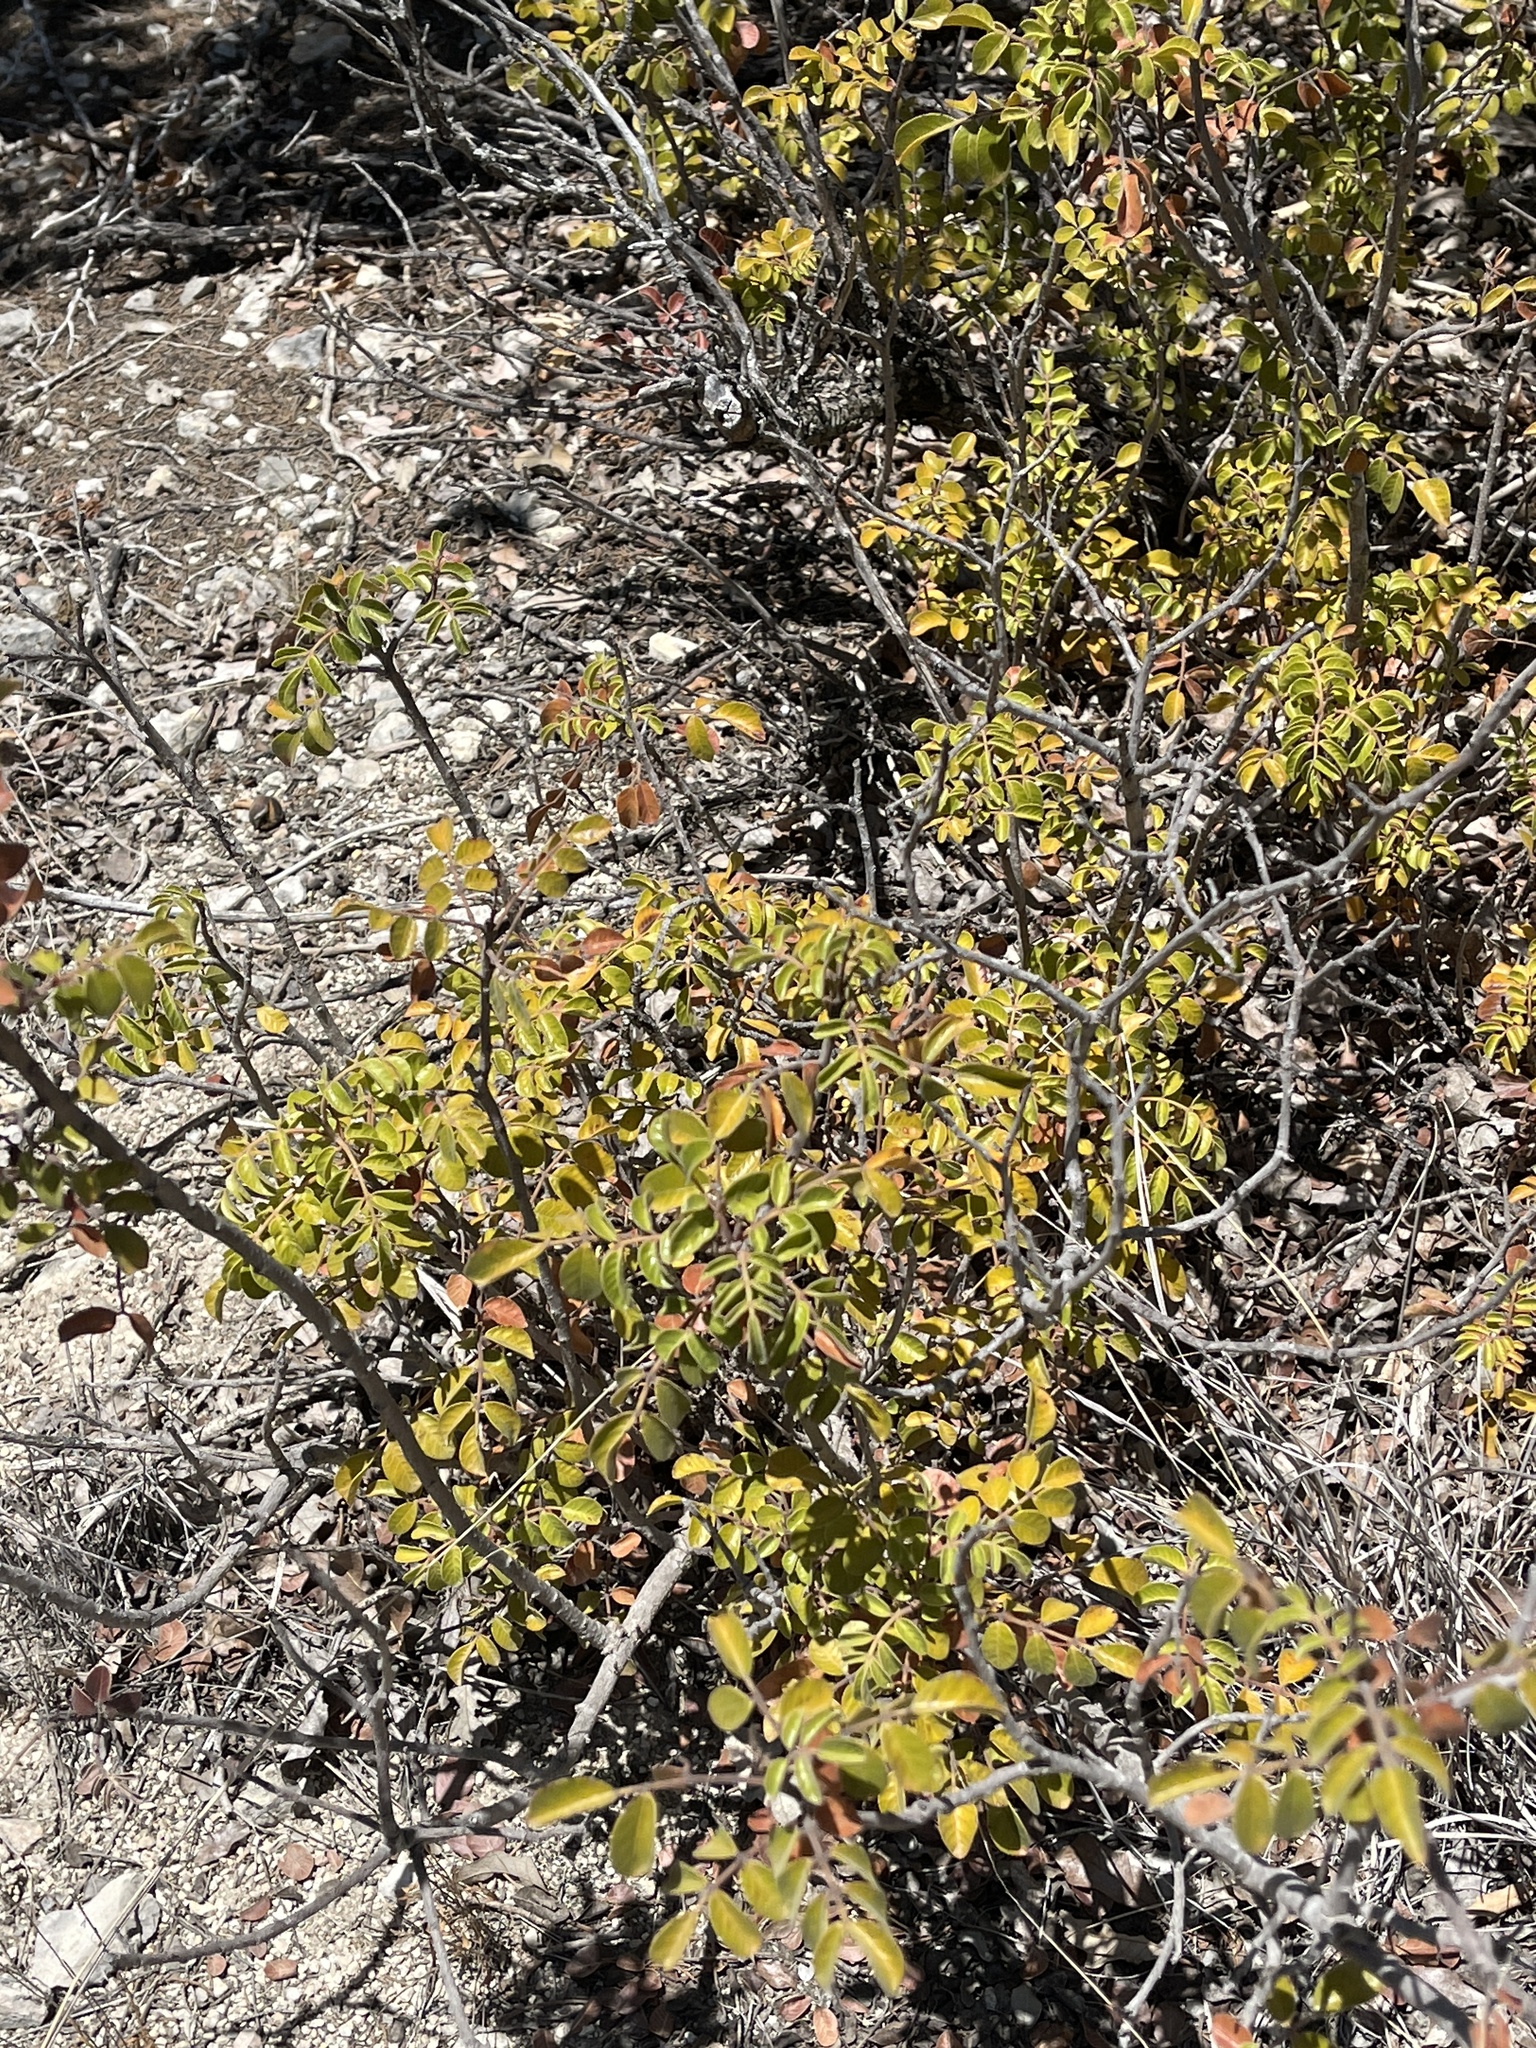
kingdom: Plantae
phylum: Tracheophyta
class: Magnoliopsida
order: Sapindales
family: Anacardiaceae
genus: Rhus
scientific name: Rhus virens
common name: Evergreen sumac
